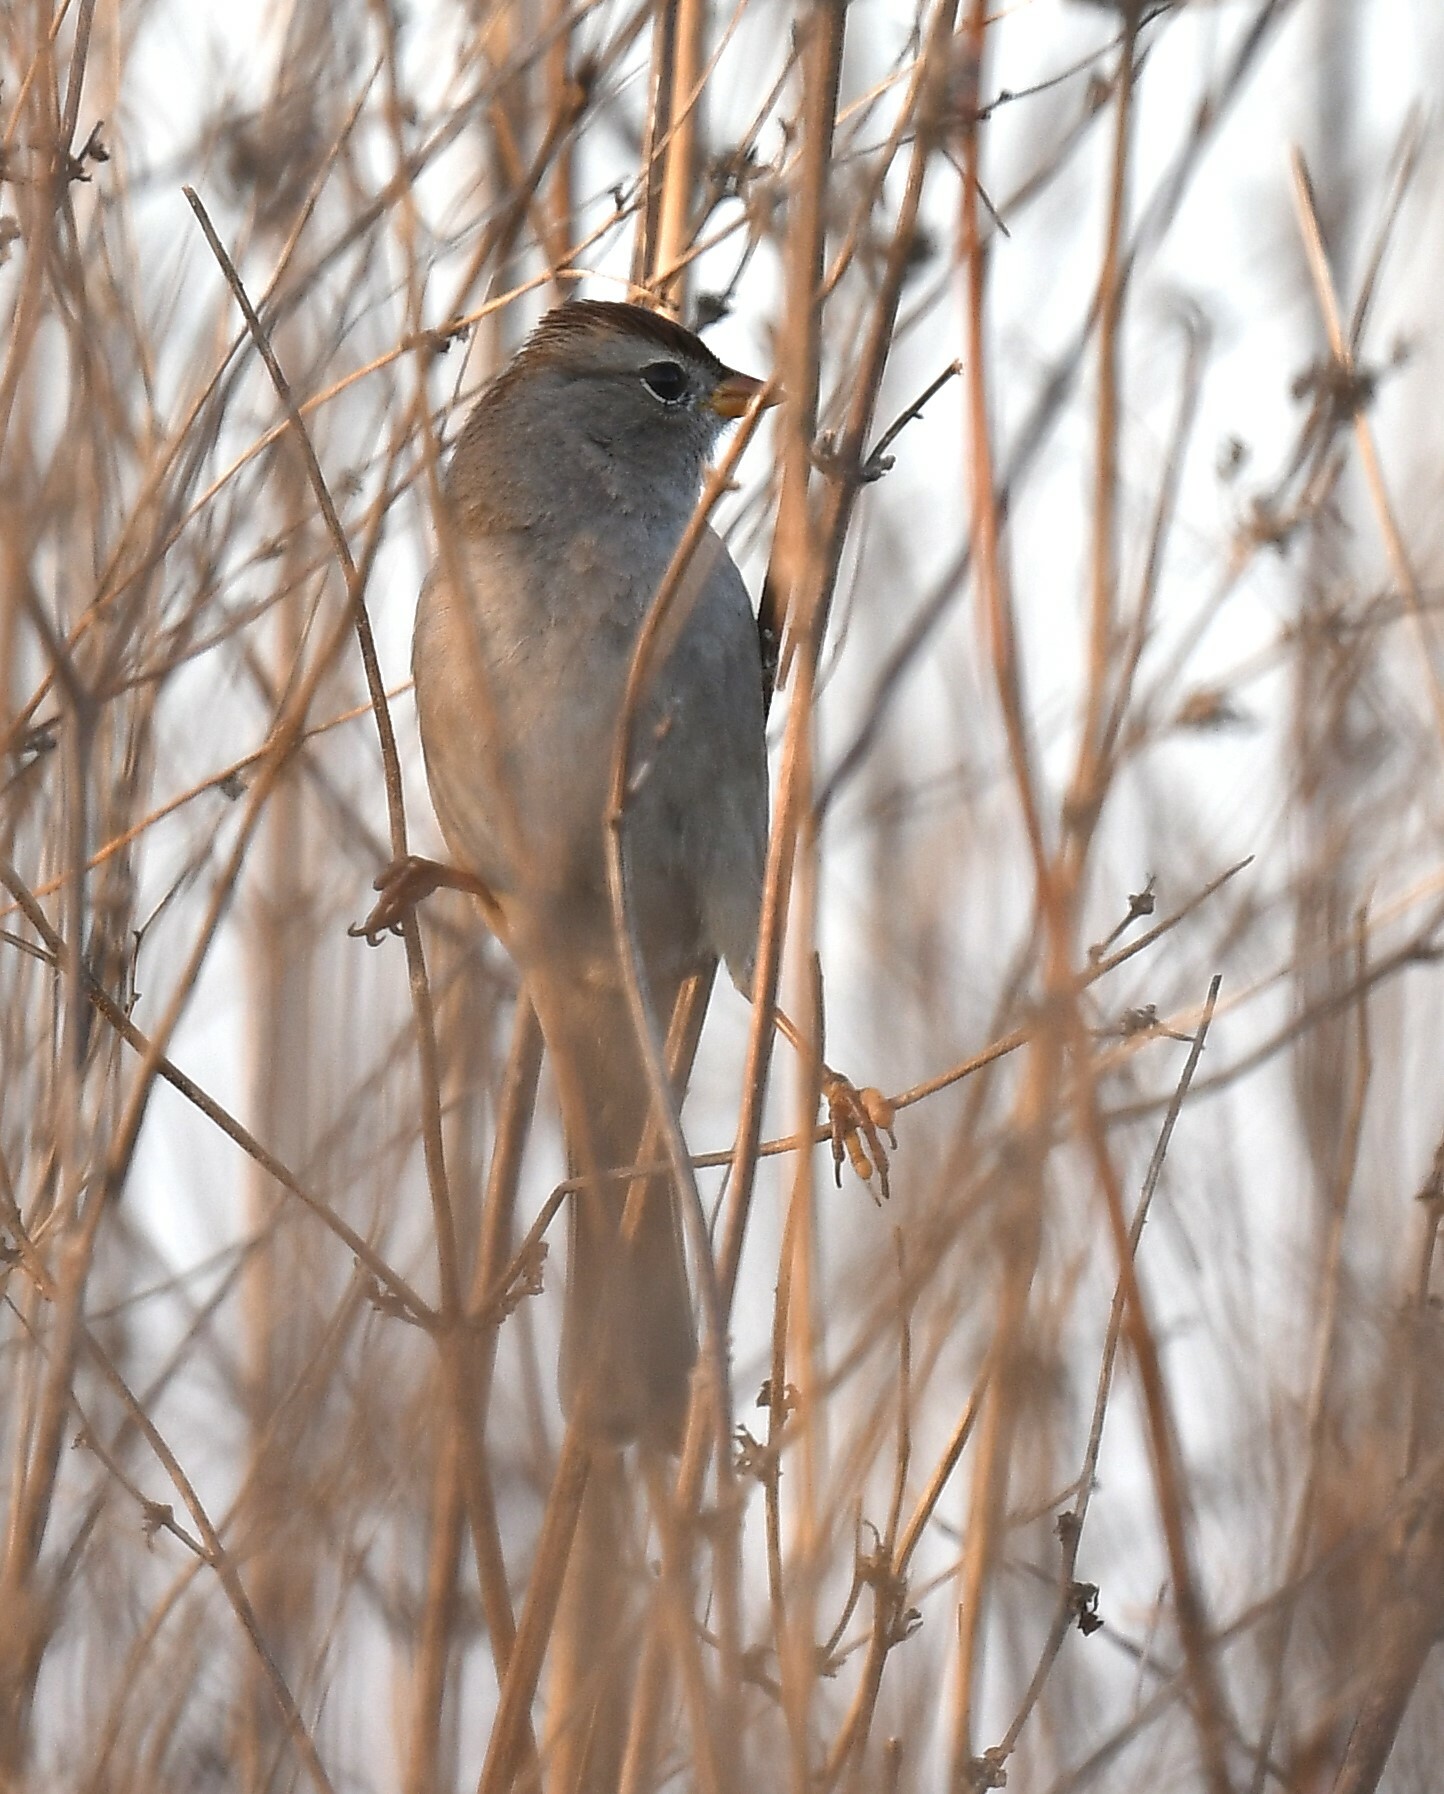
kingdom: Animalia
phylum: Chordata
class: Aves
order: Passeriformes
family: Passerellidae
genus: Zonotrichia
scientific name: Zonotrichia leucophrys
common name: White-crowned sparrow
